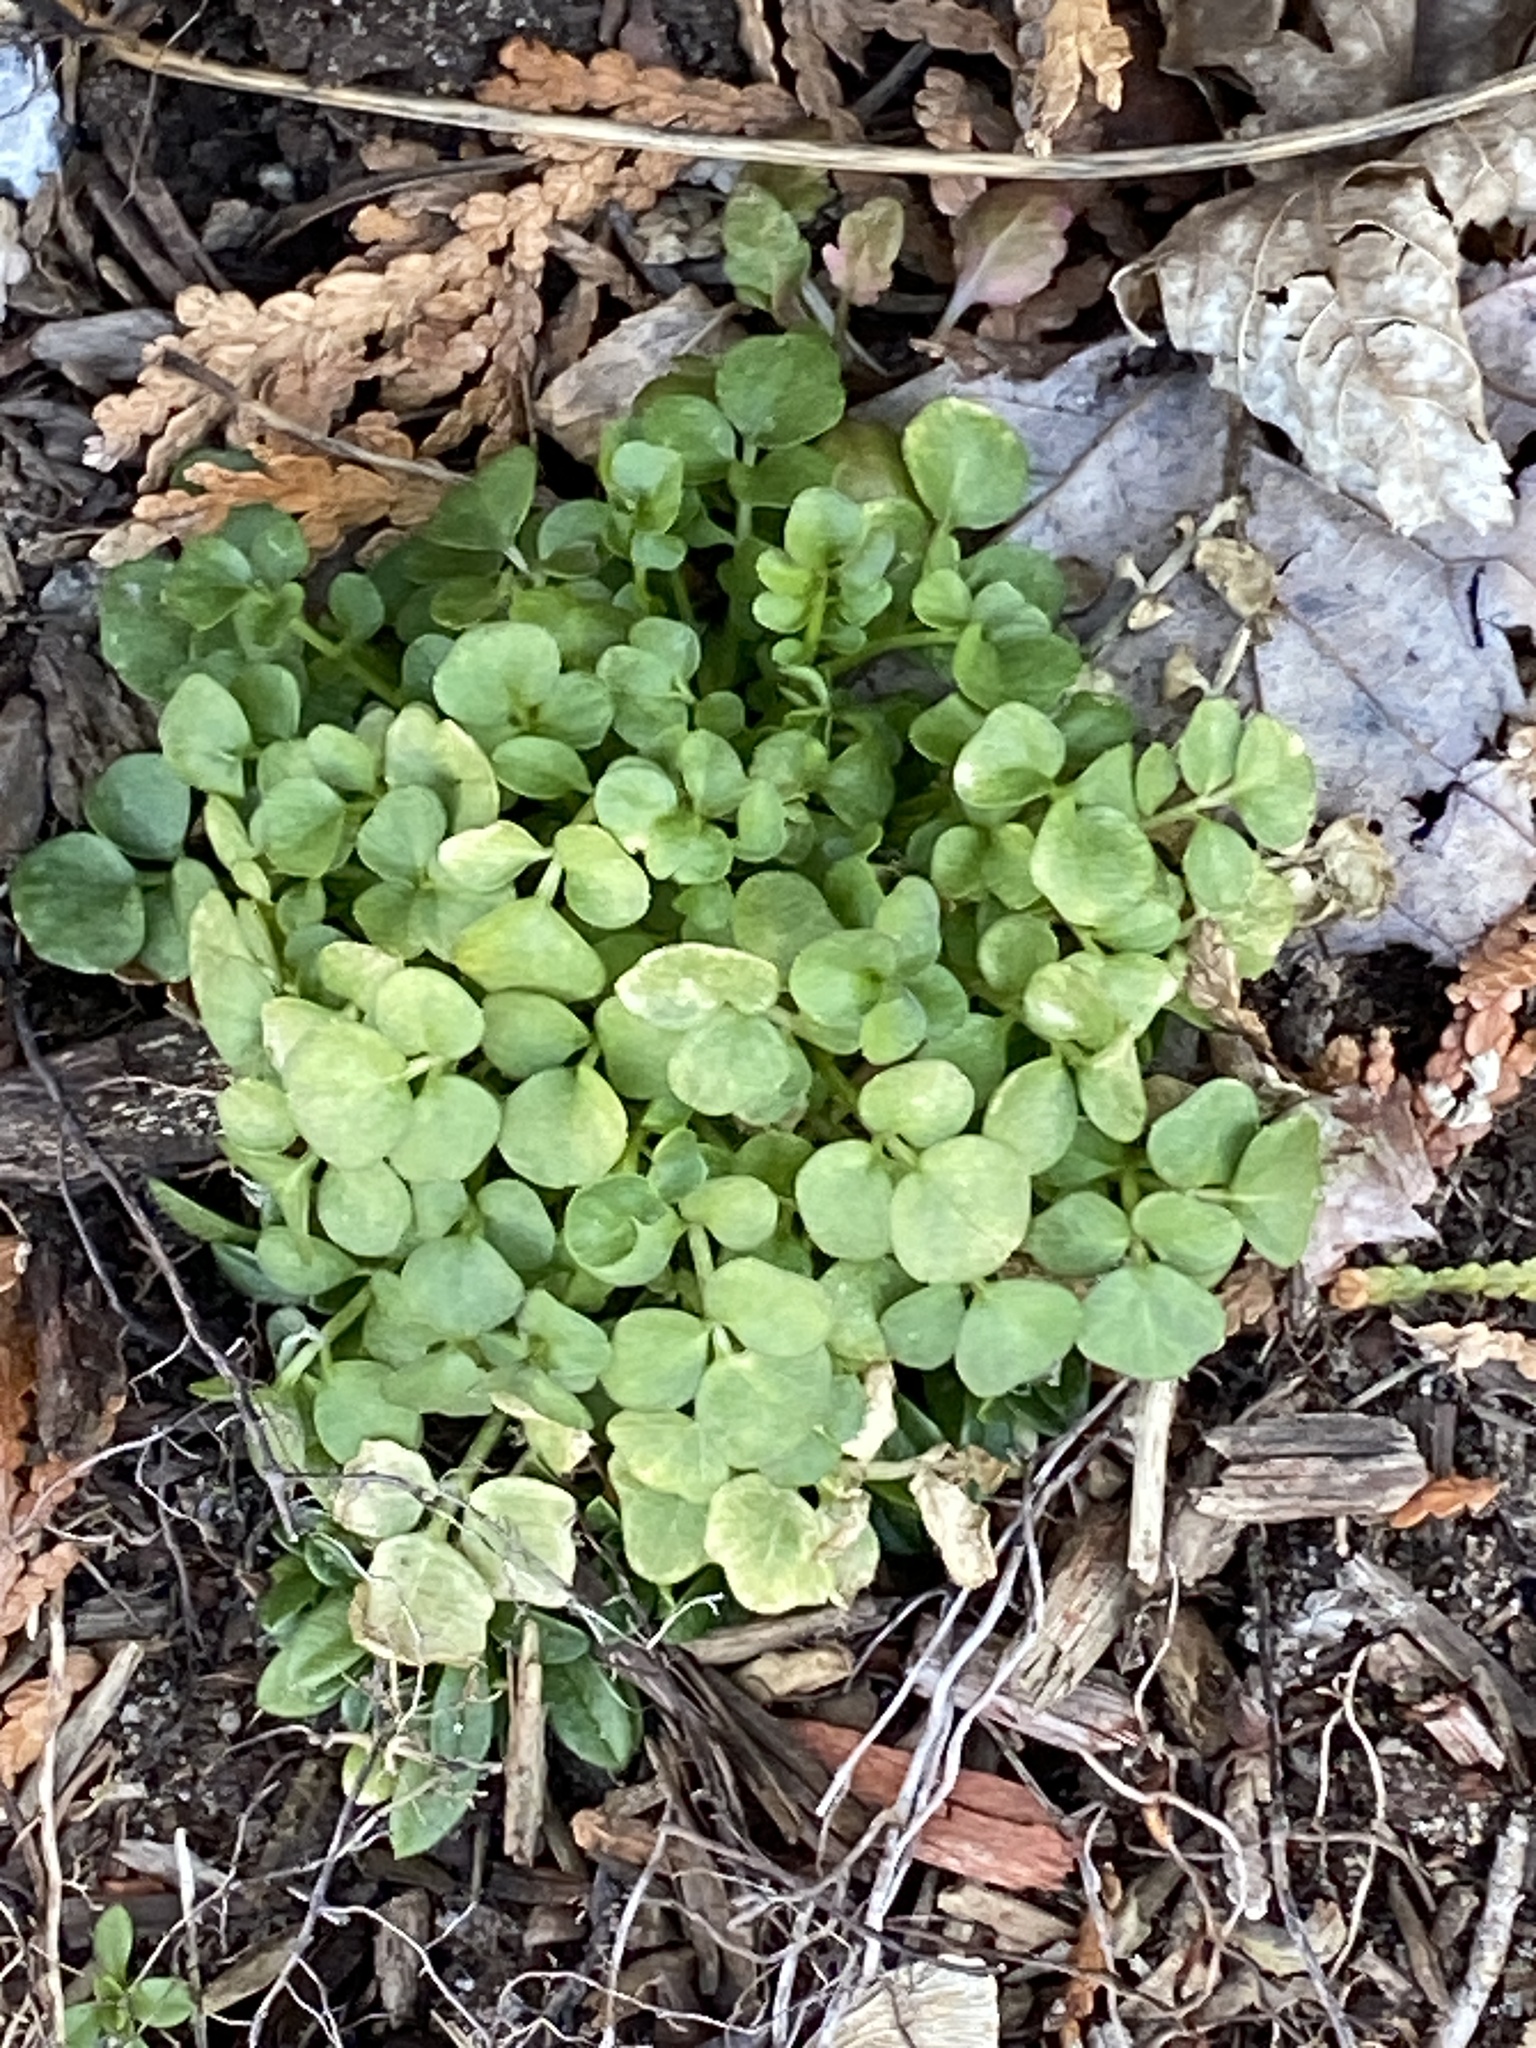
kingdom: Plantae
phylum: Tracheophyta
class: Magnoliopsida
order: Brassicales
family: Brassicaceae
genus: Cardamine
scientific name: Cardamine hirsuta
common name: Hairy bittercress
